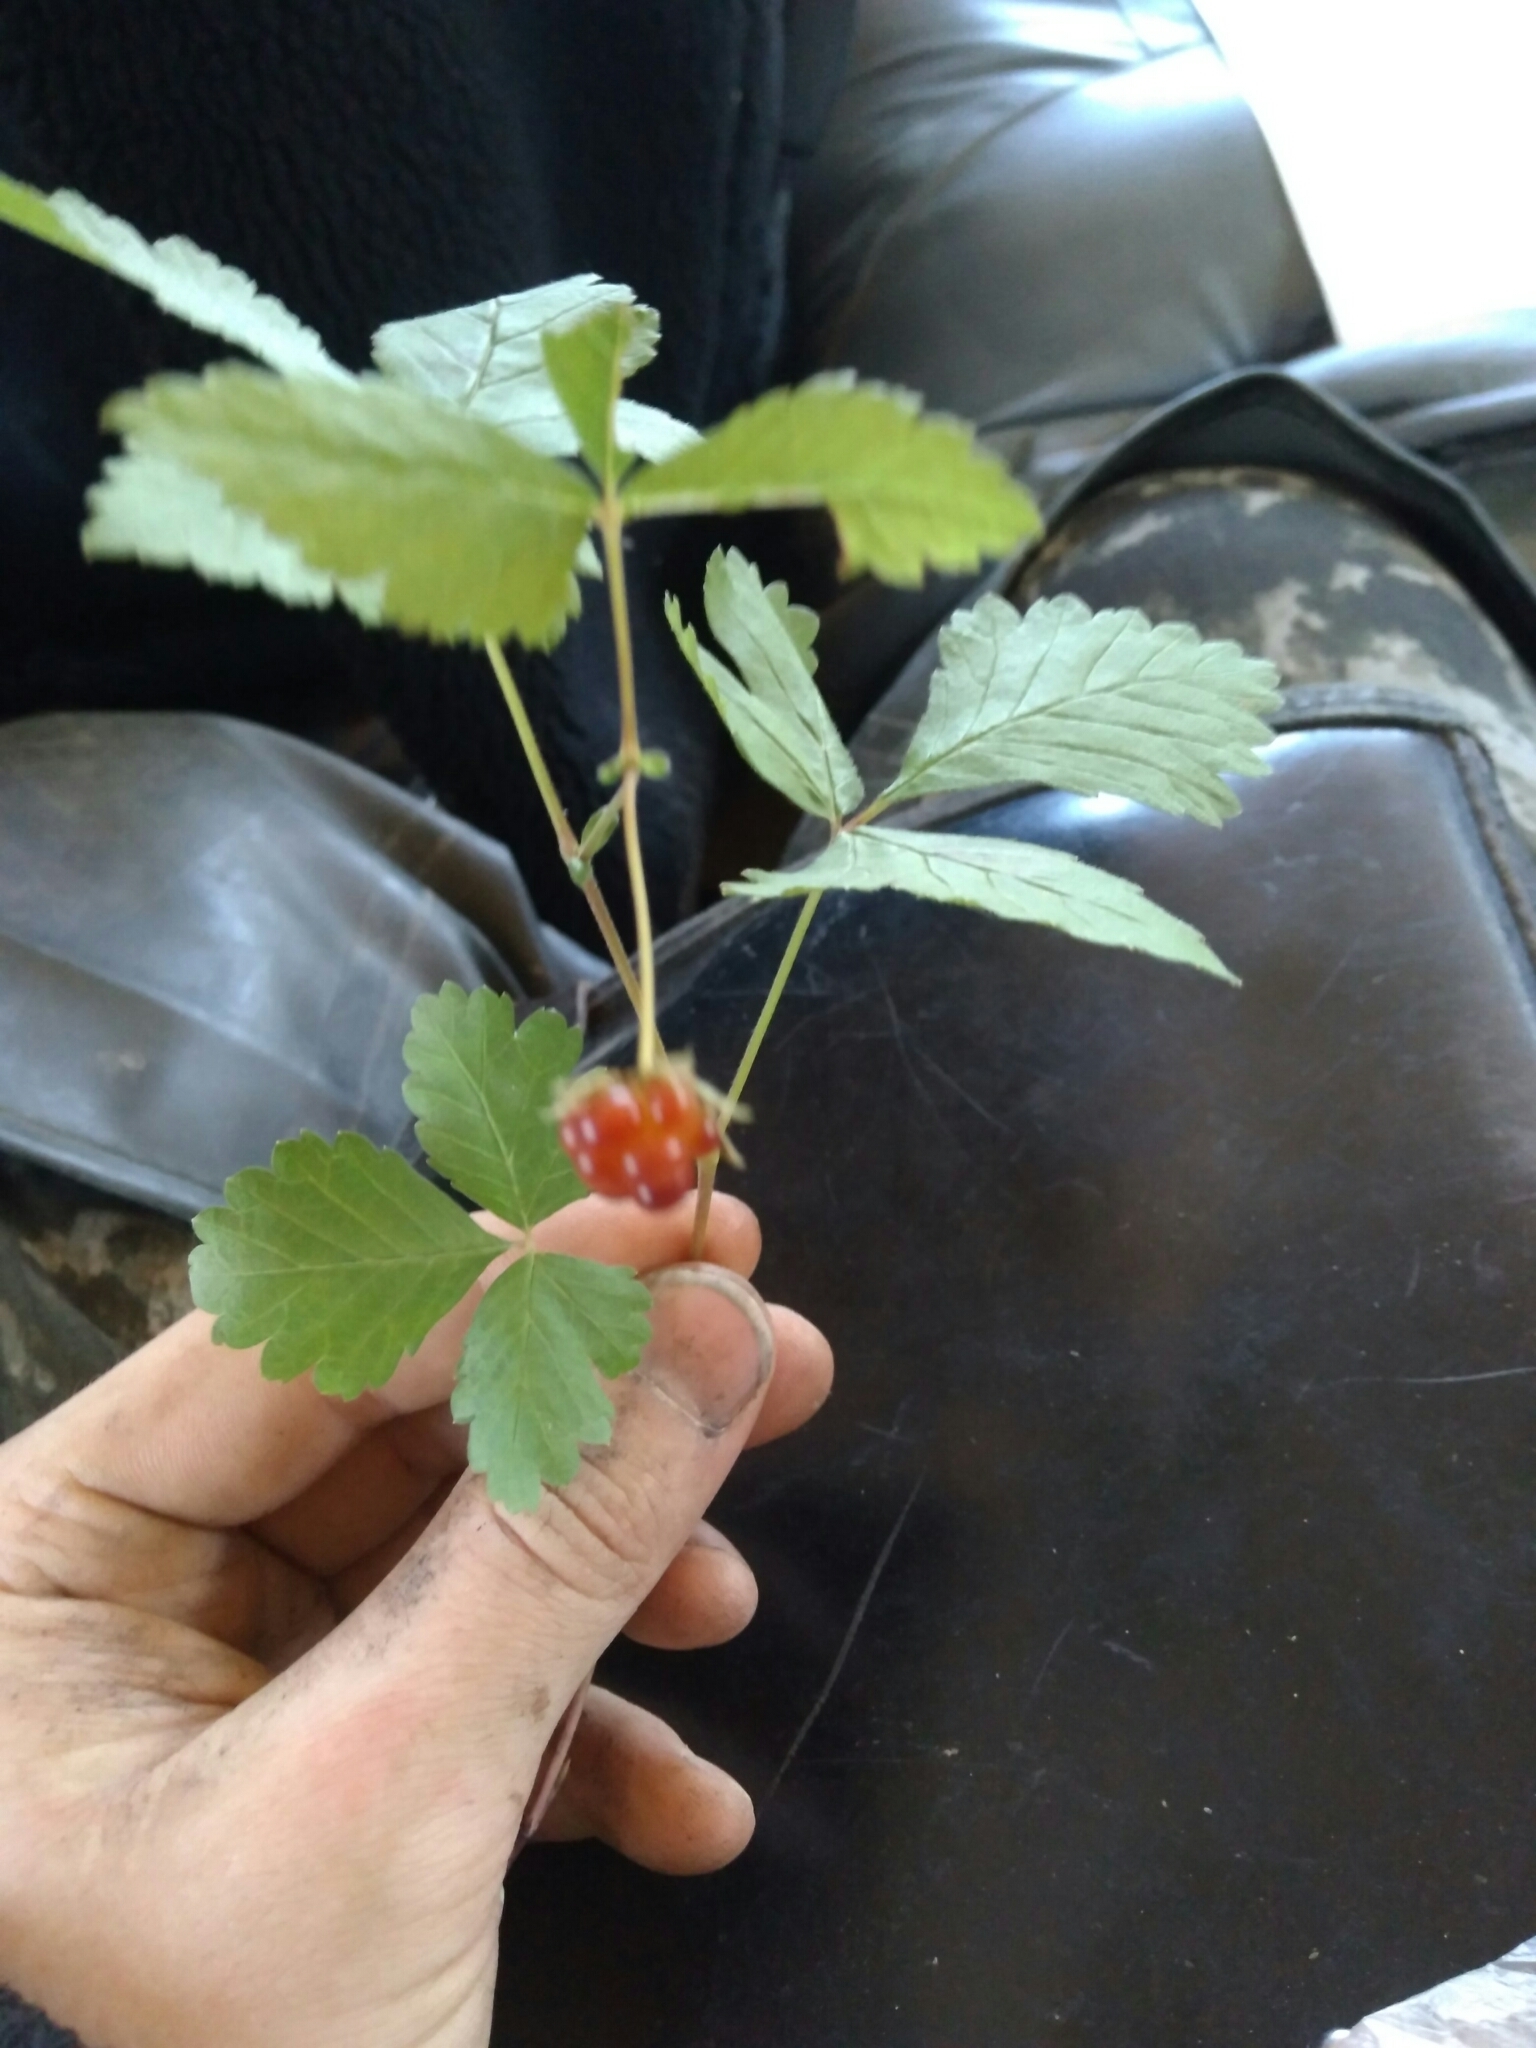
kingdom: Plantae
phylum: Tracheophyta
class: Magnoliopsida
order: Rosales
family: Rosaceae
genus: Rubus
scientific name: Rubus arcticus
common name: Arctic bramble
